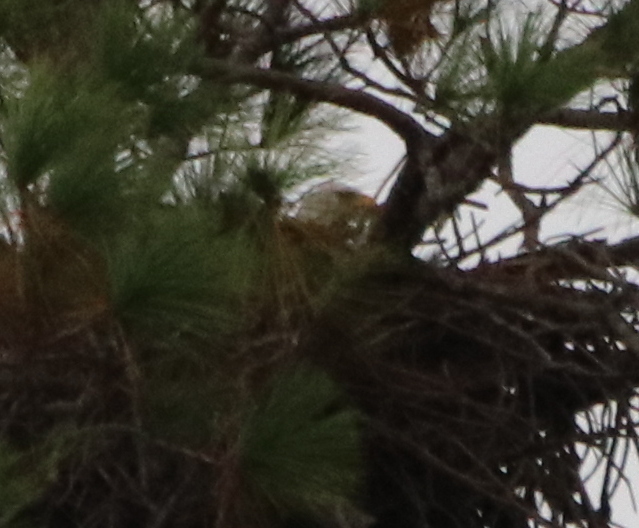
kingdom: Animalia
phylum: Chordata
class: Aves
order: Accipitriformes
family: Accipitridae
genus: Haliaeetus
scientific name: Haliaeetus leucocephalus
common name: Bald eagle
